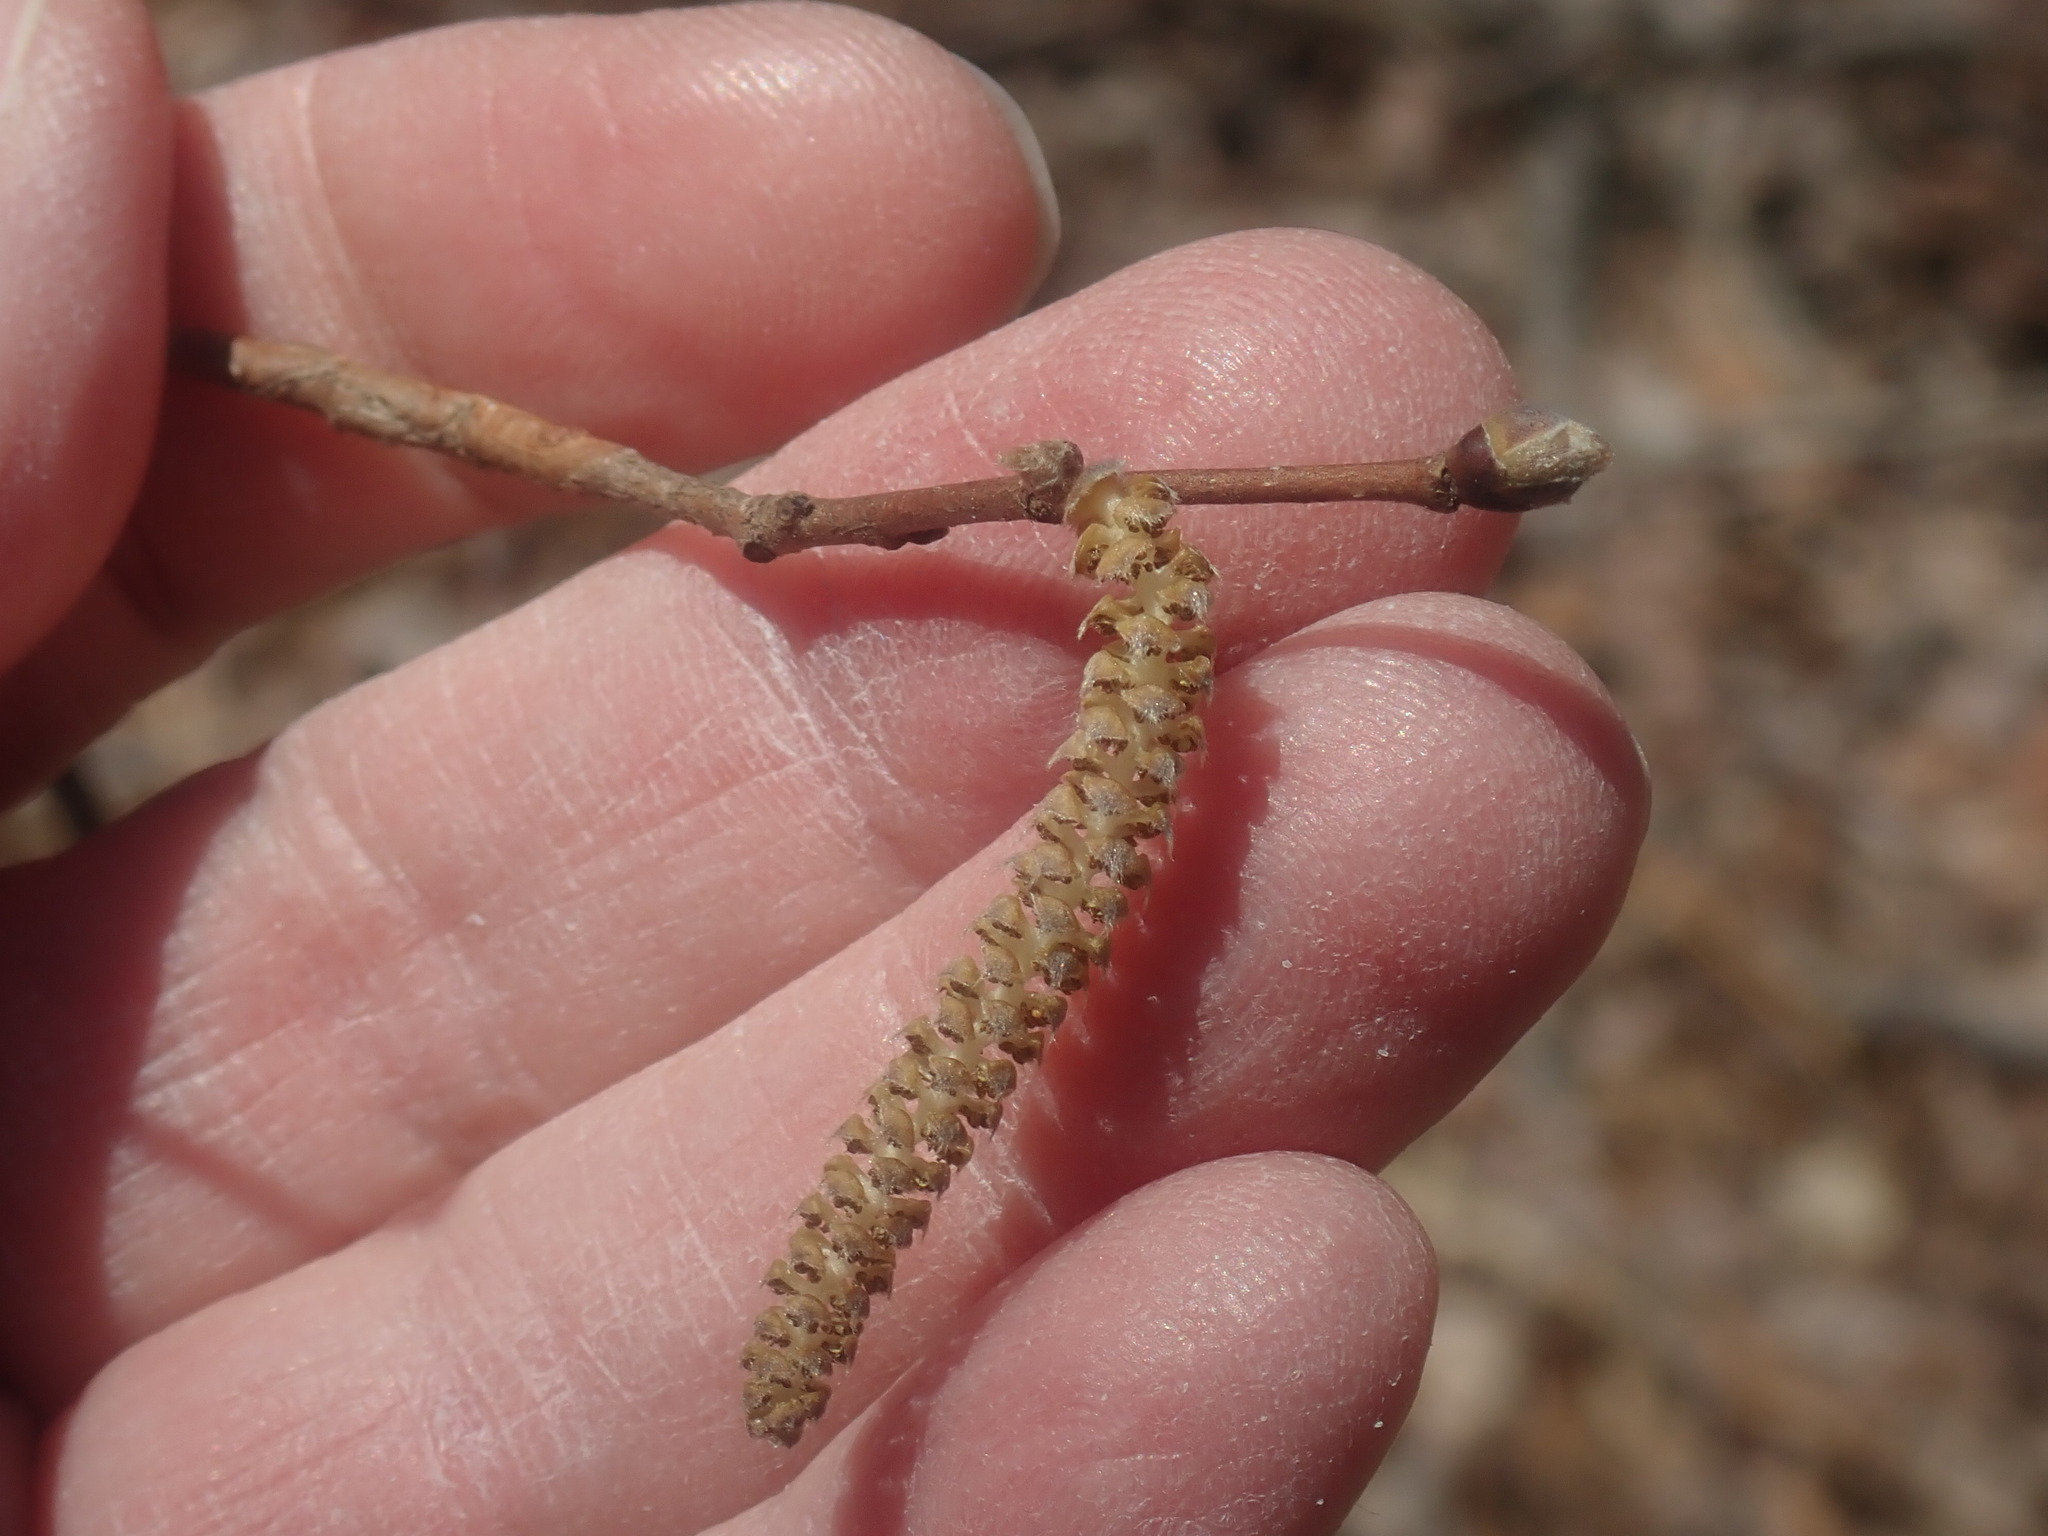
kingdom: Plantae
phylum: Tracheophyta
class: Magnoliopsida
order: Fagales
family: Betulaceae
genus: Corylus
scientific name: Corylus cornuta
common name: Beaked hazel
